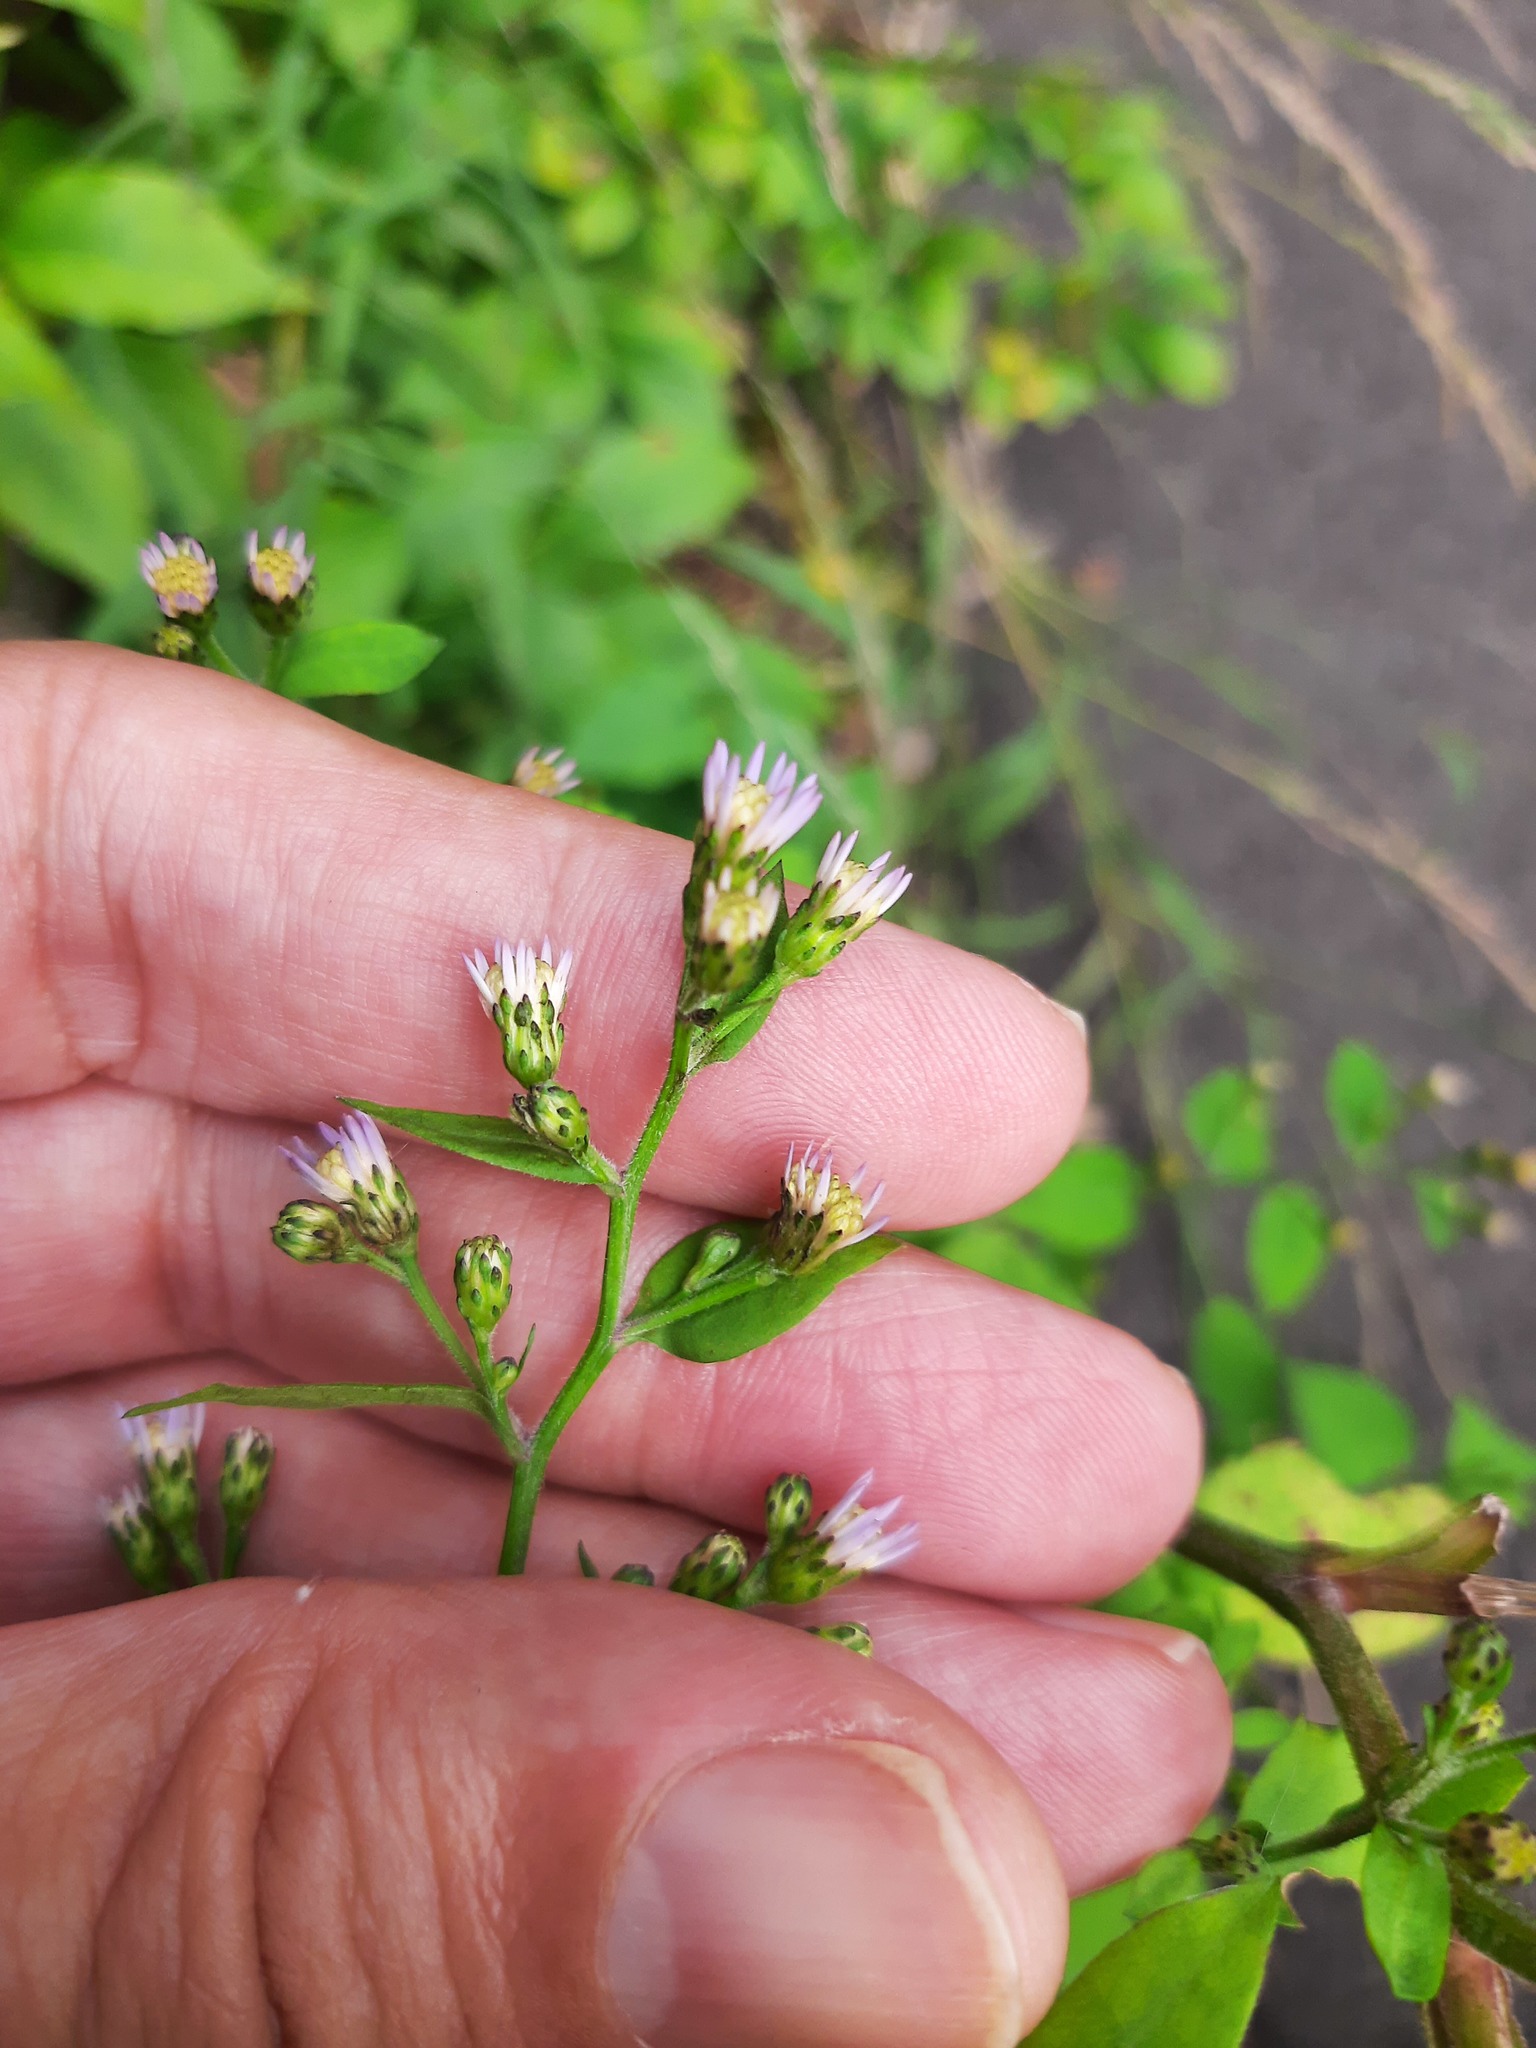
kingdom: Plantae
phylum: Tracheophyta
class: Magnoliopsida
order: Asterales
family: Asteraceae
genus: Symphyotrichum
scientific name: Symphyotrichum cordifolium
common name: Beeweed
